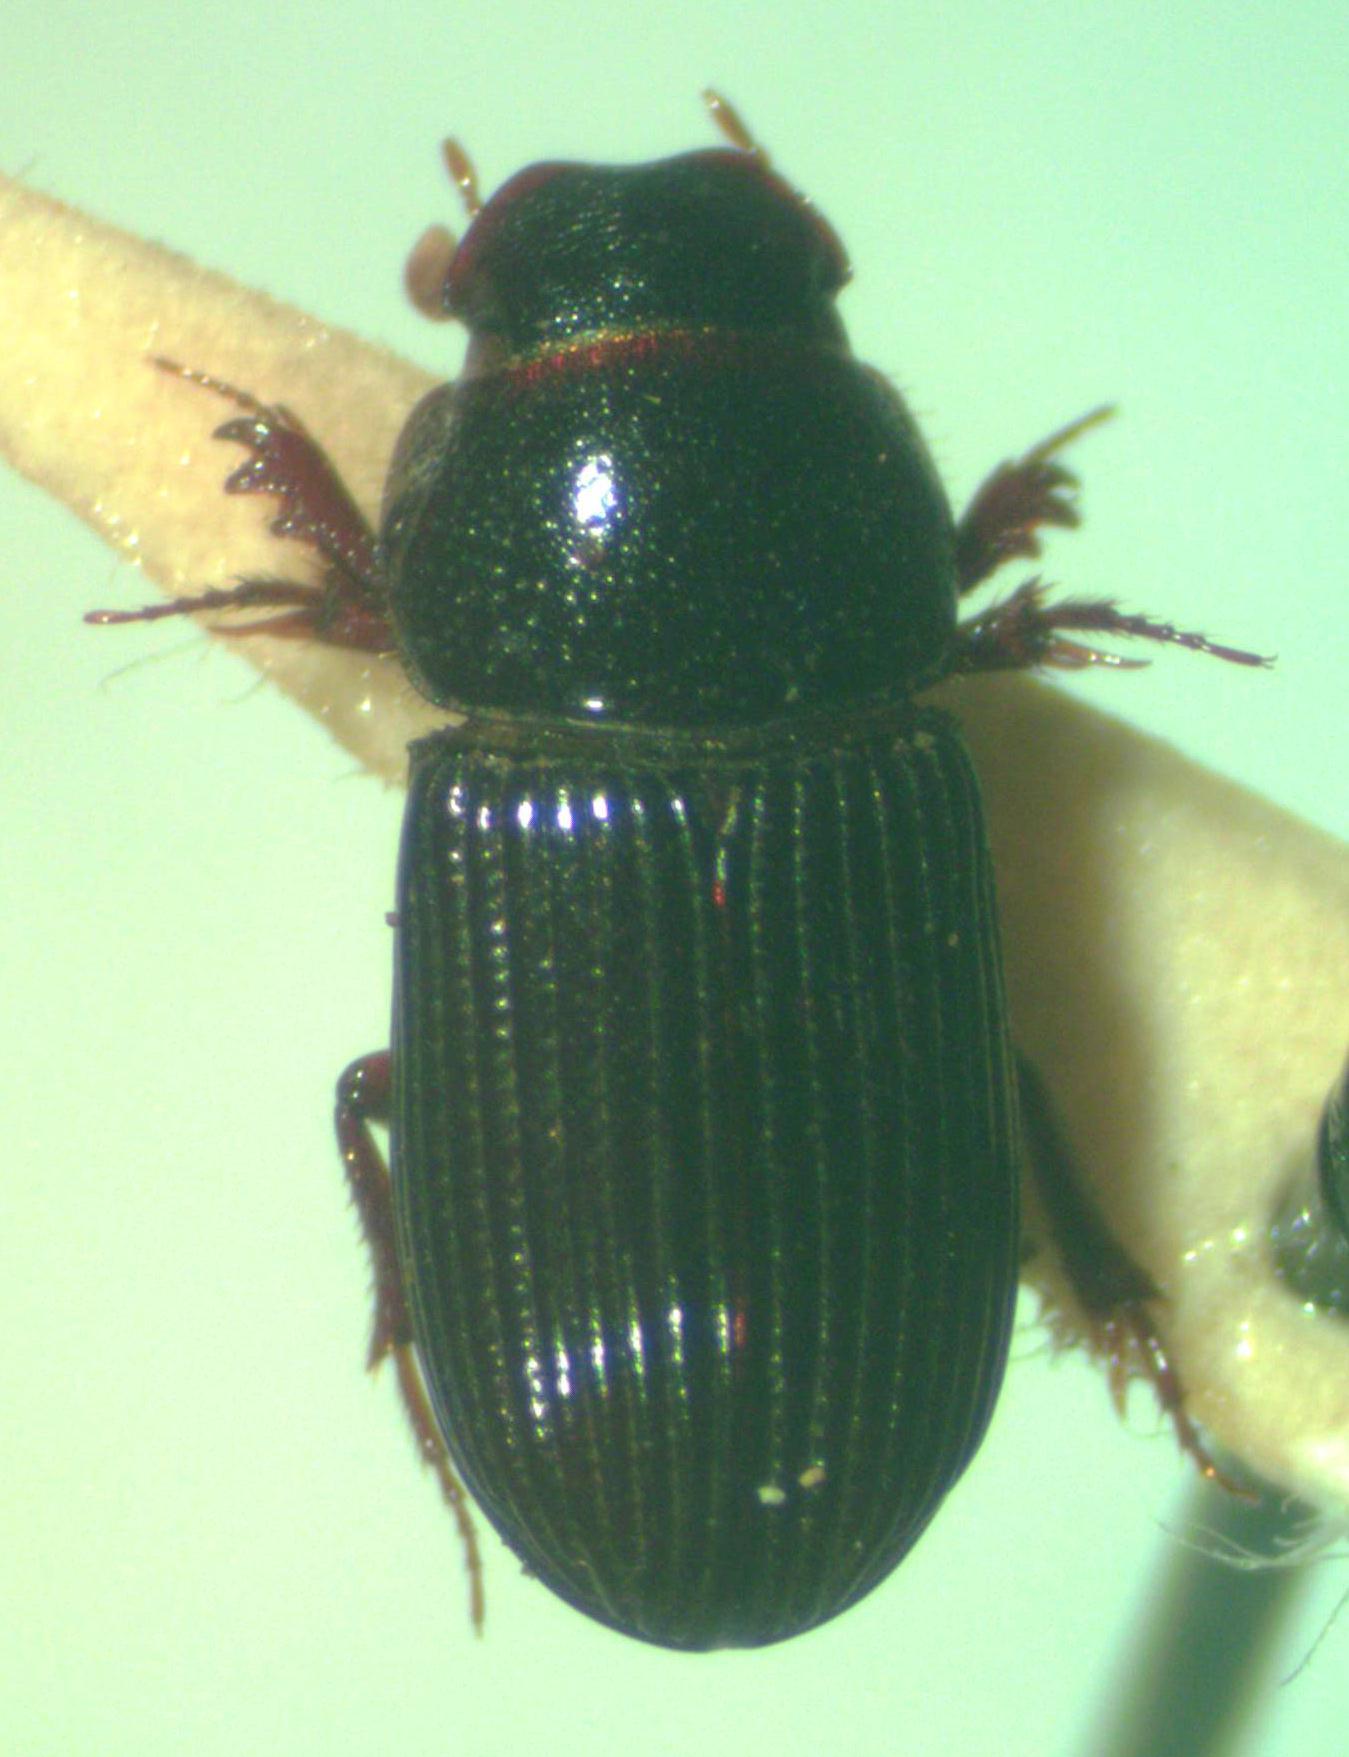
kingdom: Animalia
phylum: Arthropoda
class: Insecta
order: Coleoptera
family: Scarabaeidae
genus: Ataenius
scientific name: Ataenius platensis
